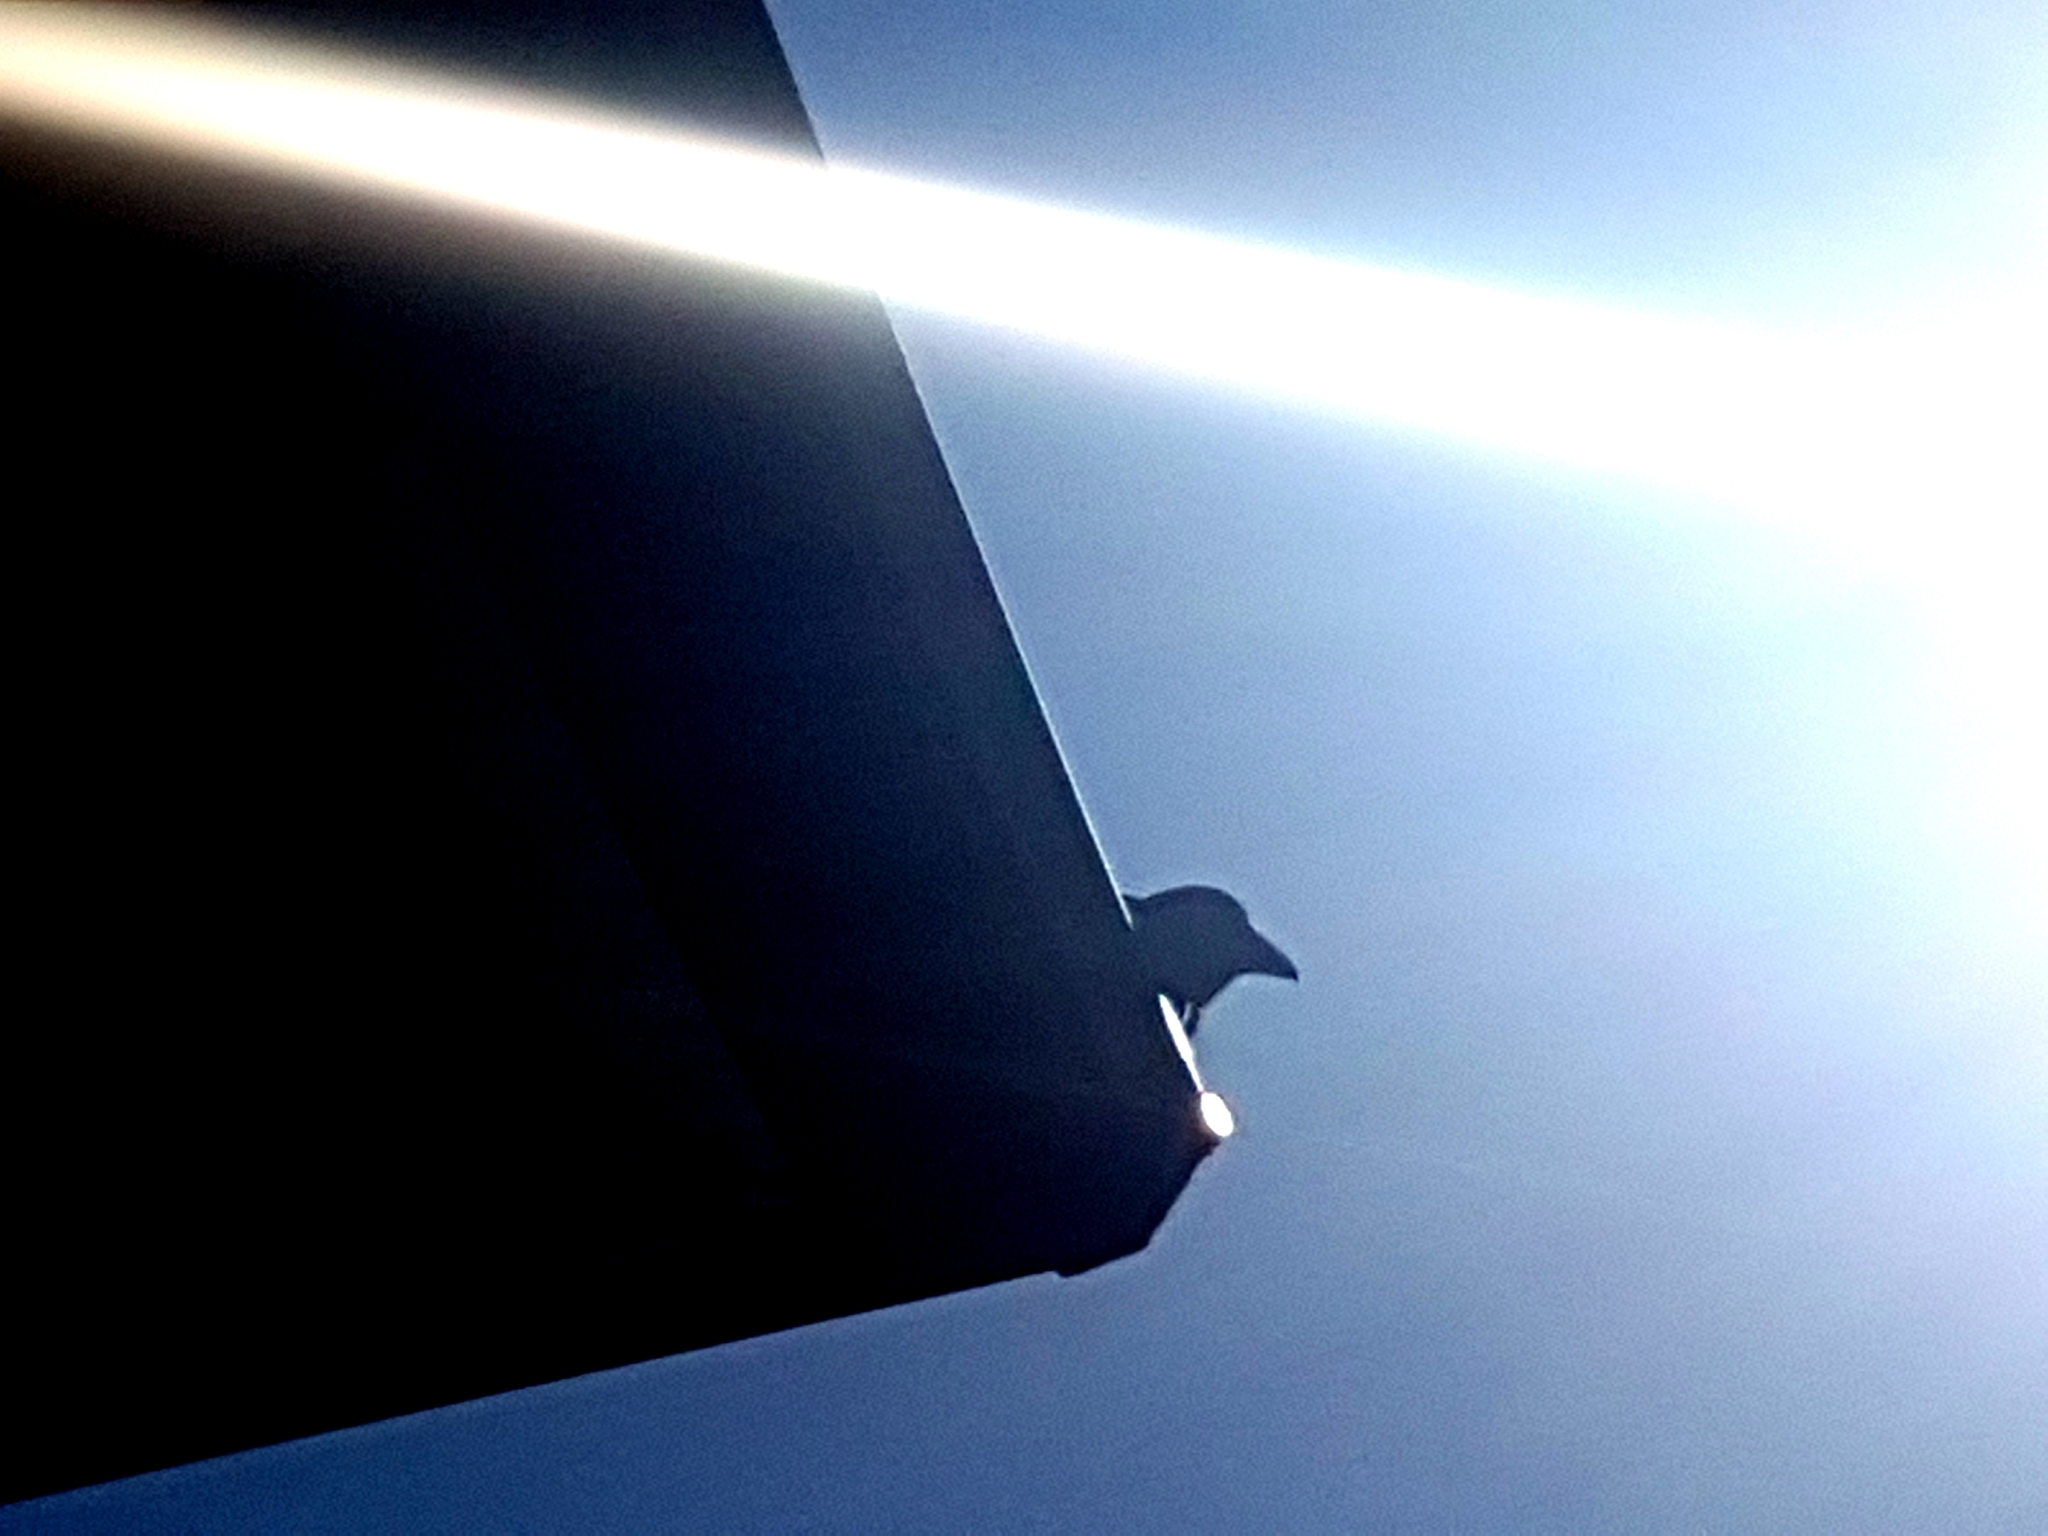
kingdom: Animalia
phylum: Chordata
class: Aves
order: Passeriformes
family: Corvidae
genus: Corvus
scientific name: Corvus brachyrhynchos
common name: American crow
